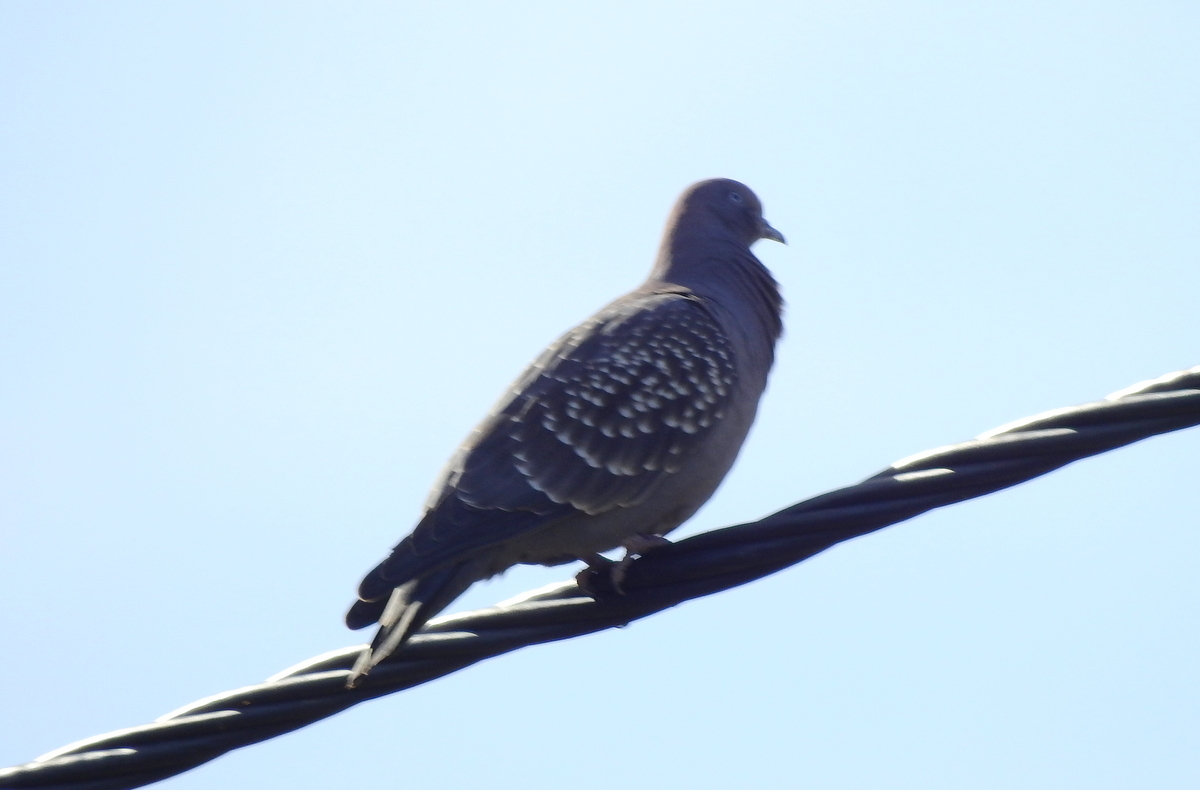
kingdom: Animalia
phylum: Chordata
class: Aves
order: Columbiformes
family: Columbidae
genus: Patagioenas
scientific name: Patagioenas maculosa
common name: Spot-winged pigeon
